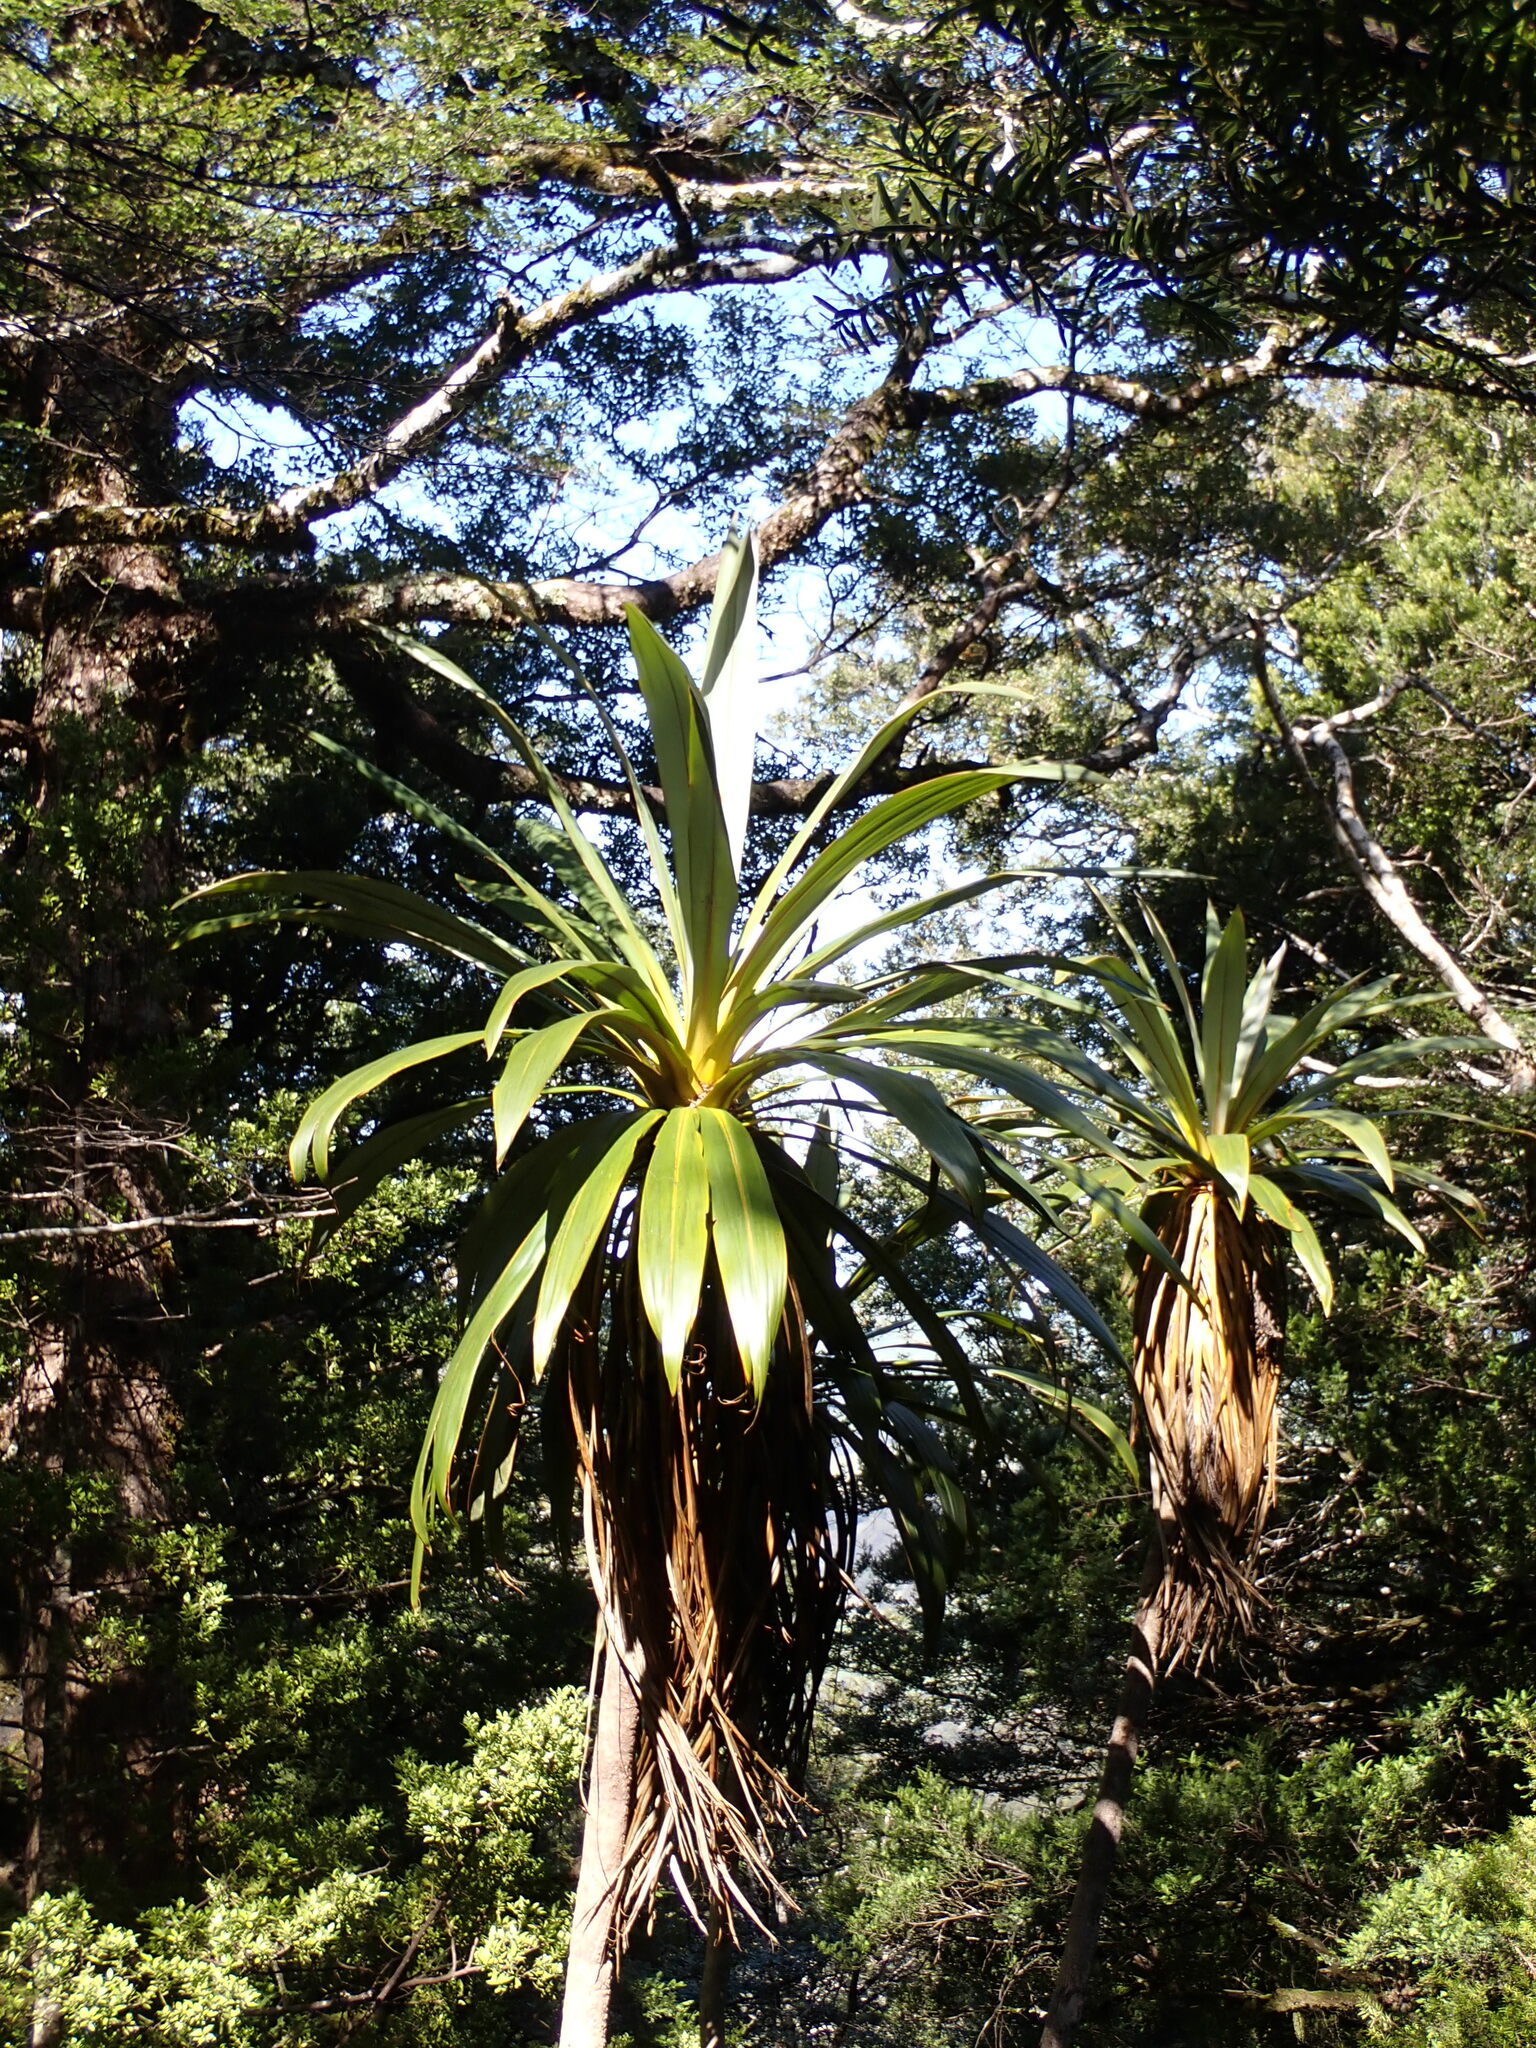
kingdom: Plantae
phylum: Tracheophyta
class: Liliopsida
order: Asparagales
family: Asparagaceae
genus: Cordyline
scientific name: Cordyline indivisa
